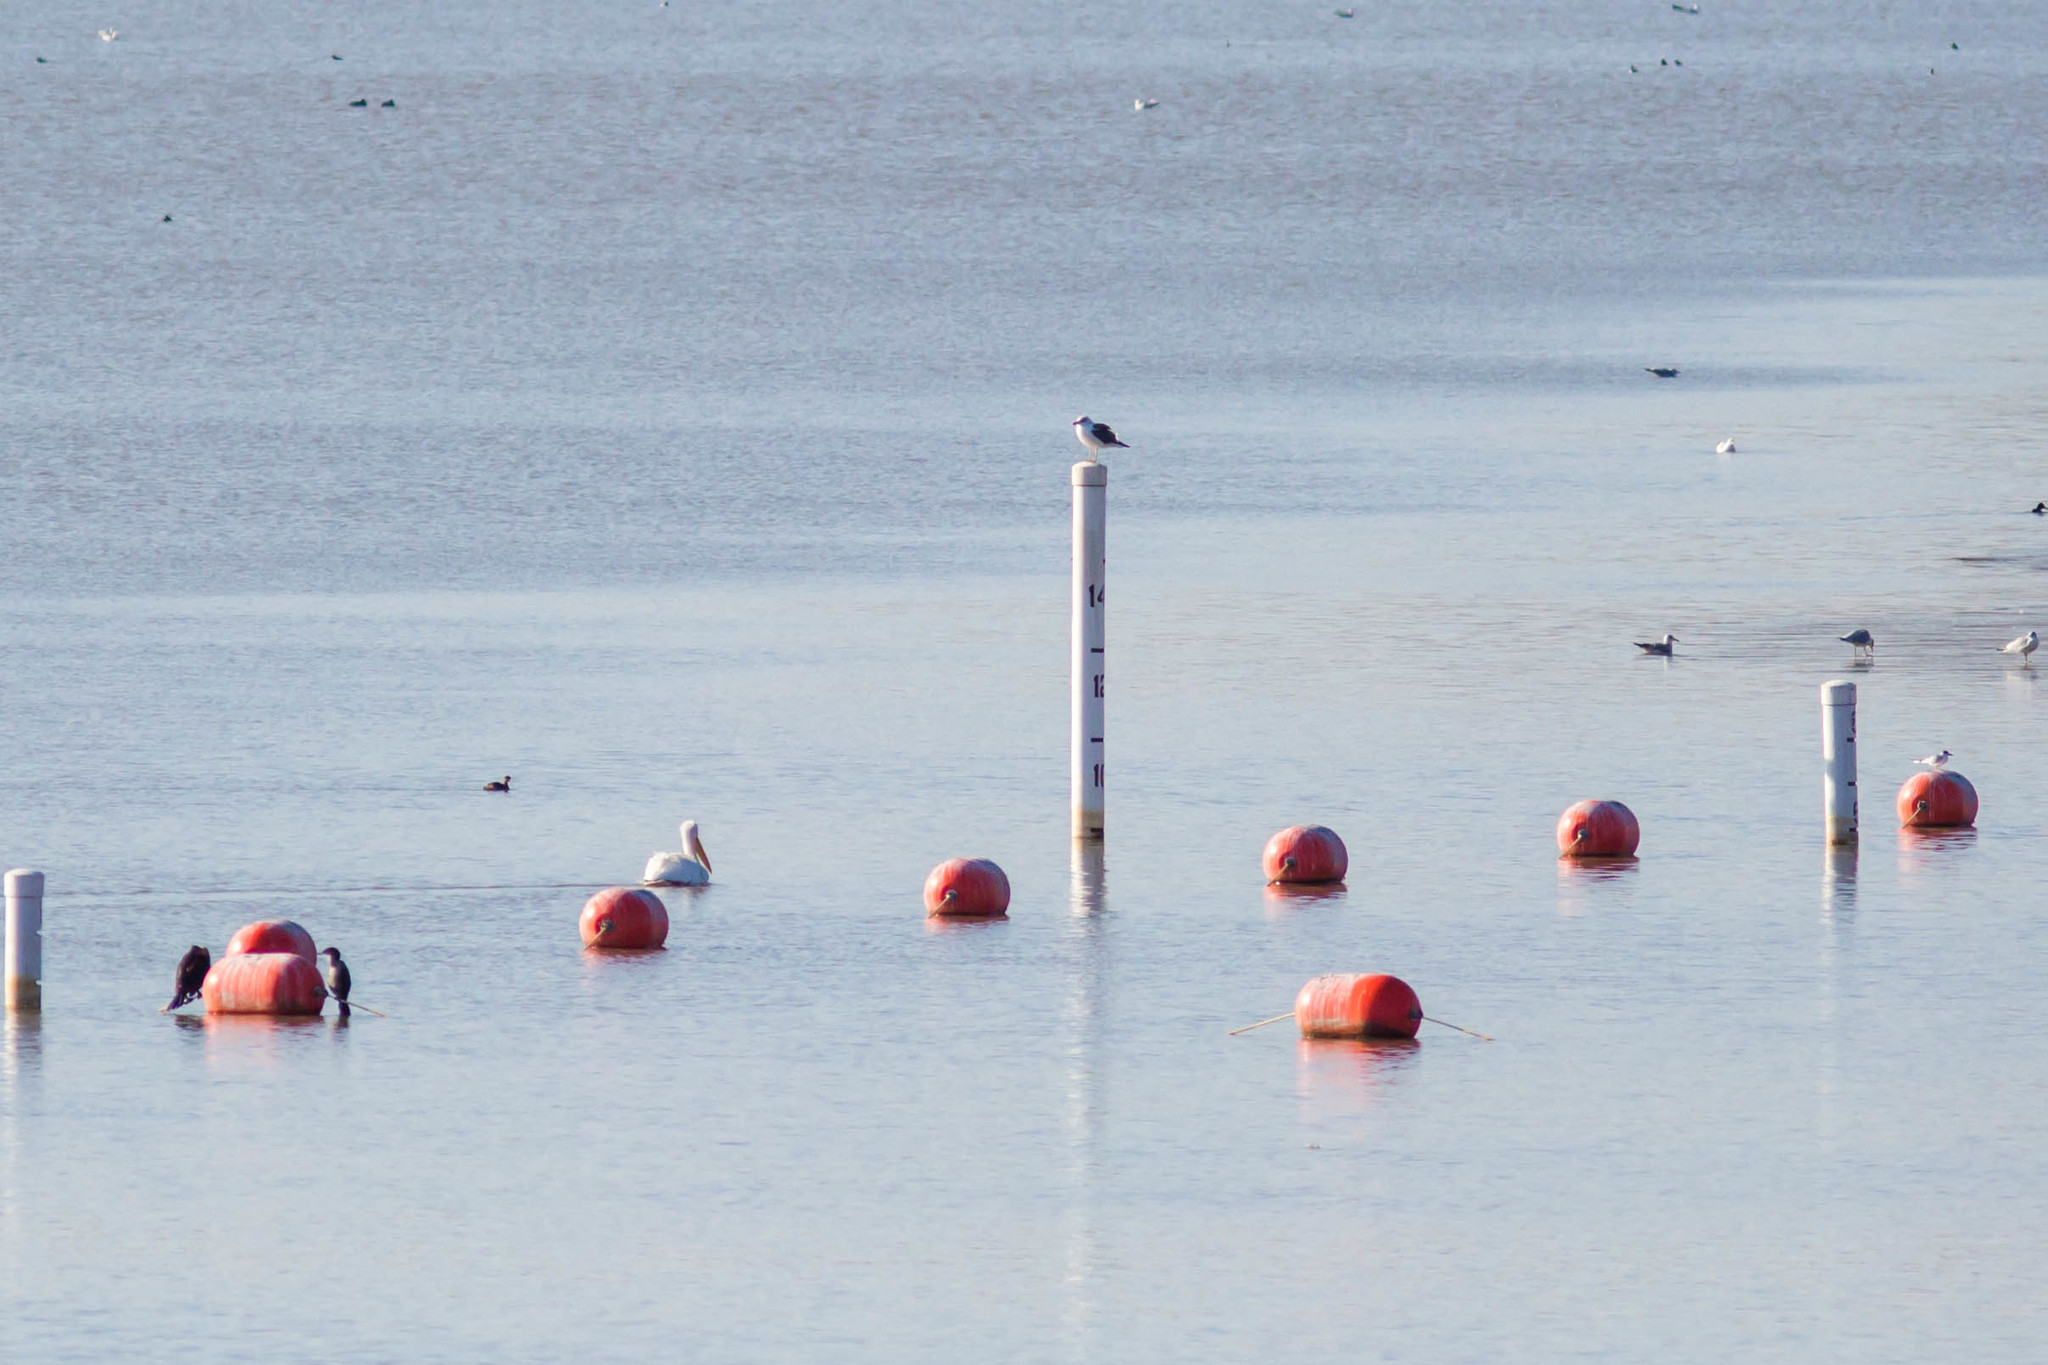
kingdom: Animalia
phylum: Chordata
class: Aves
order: Charadriiformes
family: Laridae
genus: Larus
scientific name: Larus fuscus
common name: Lesser black-backed gull
